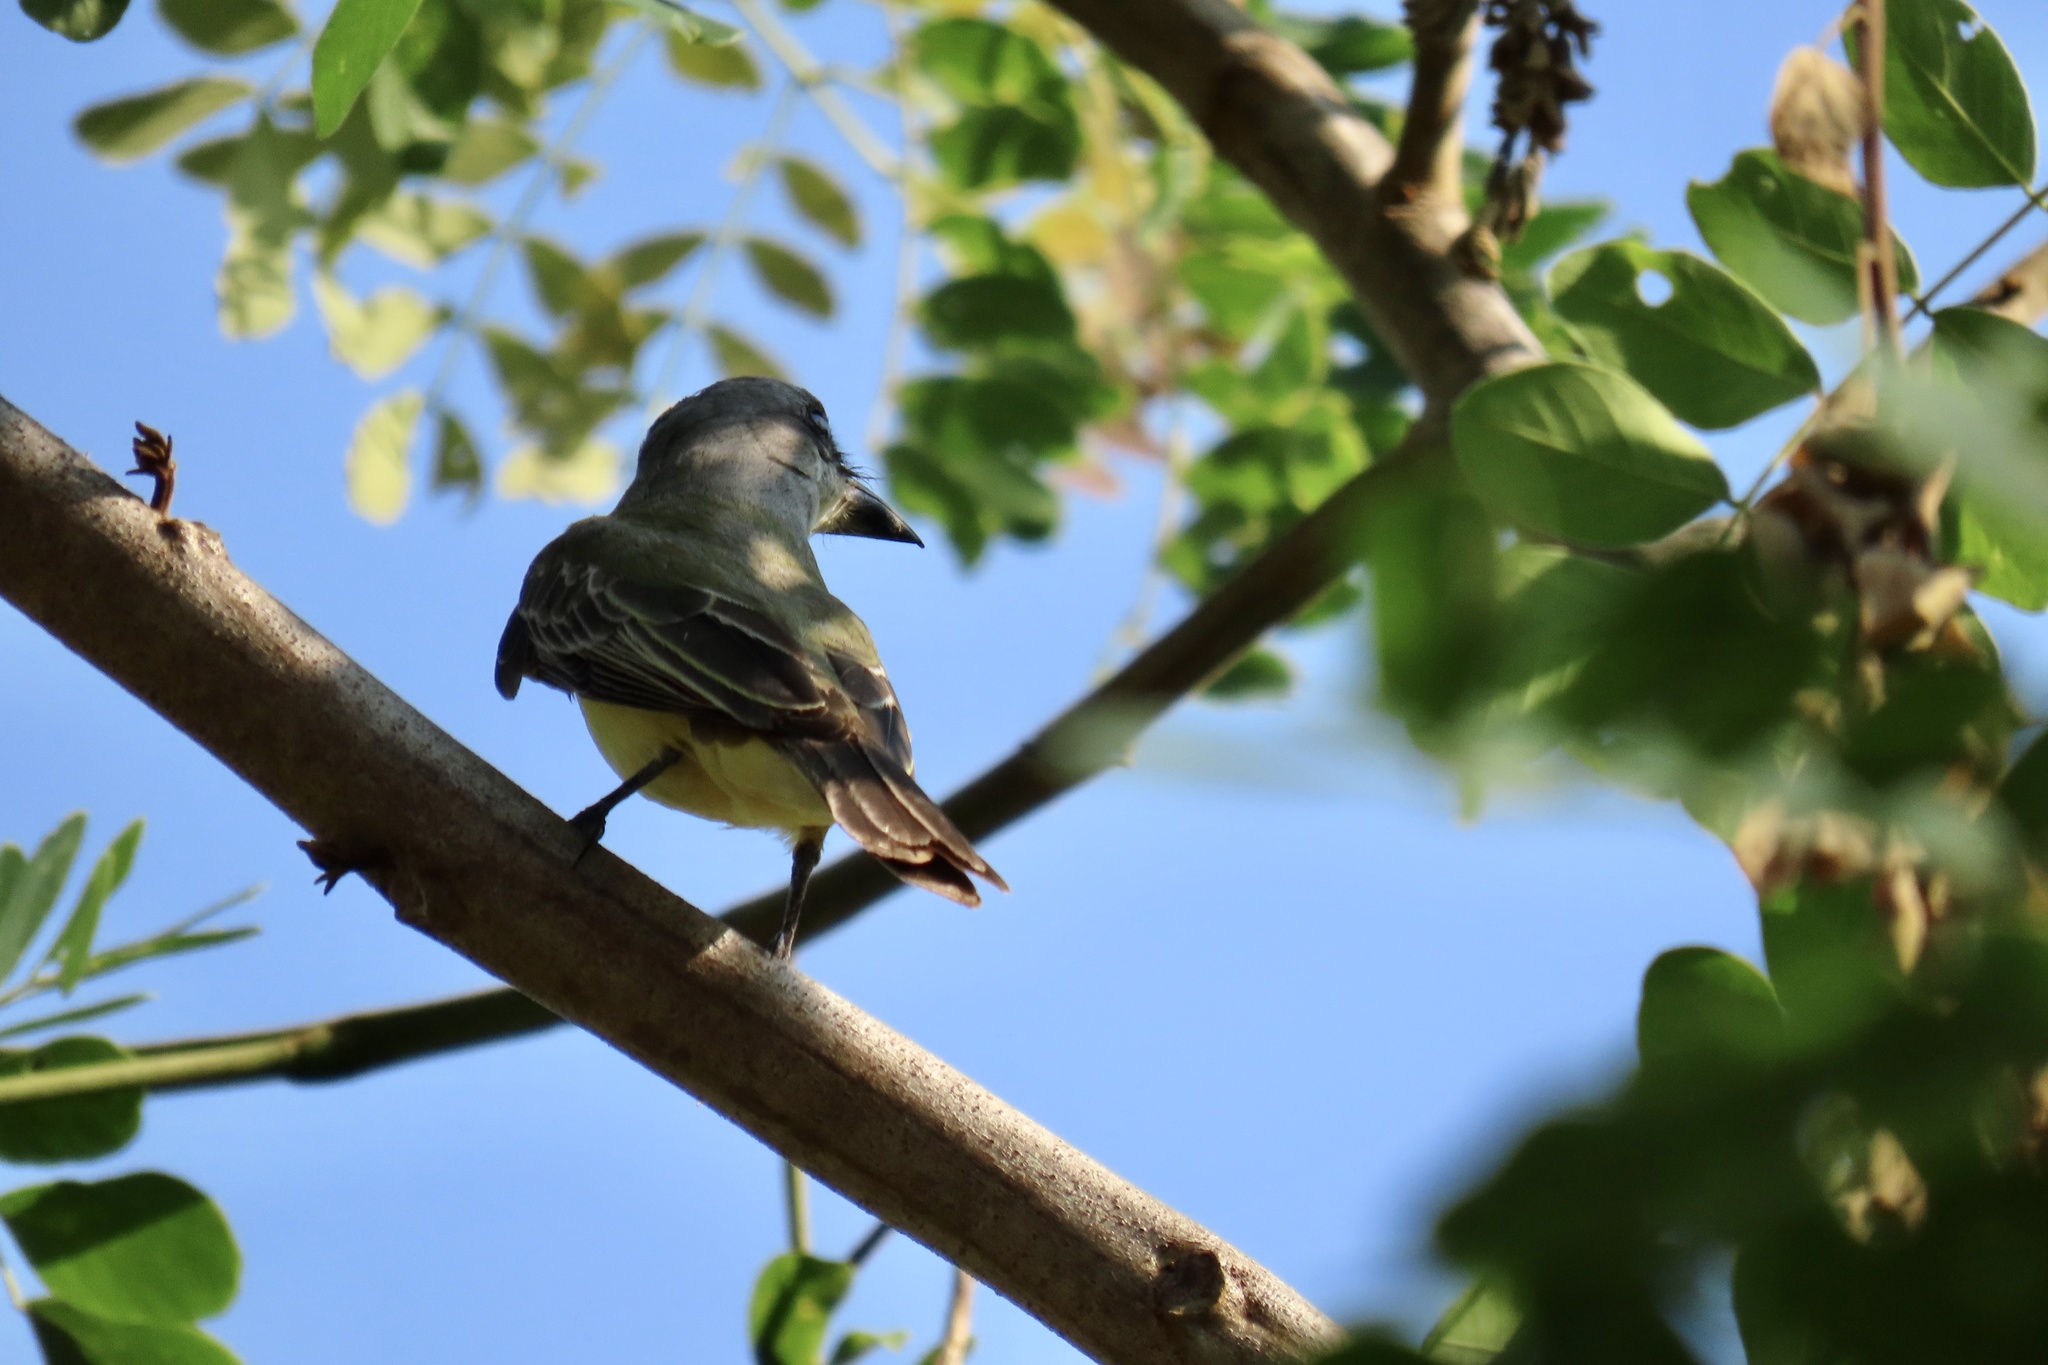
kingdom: Animalia
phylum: Chordata
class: Aves
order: Passeriformes
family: Tyrannidae
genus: Tyrannus
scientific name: Tyrannus melancholicus
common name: Tropical kingbird
